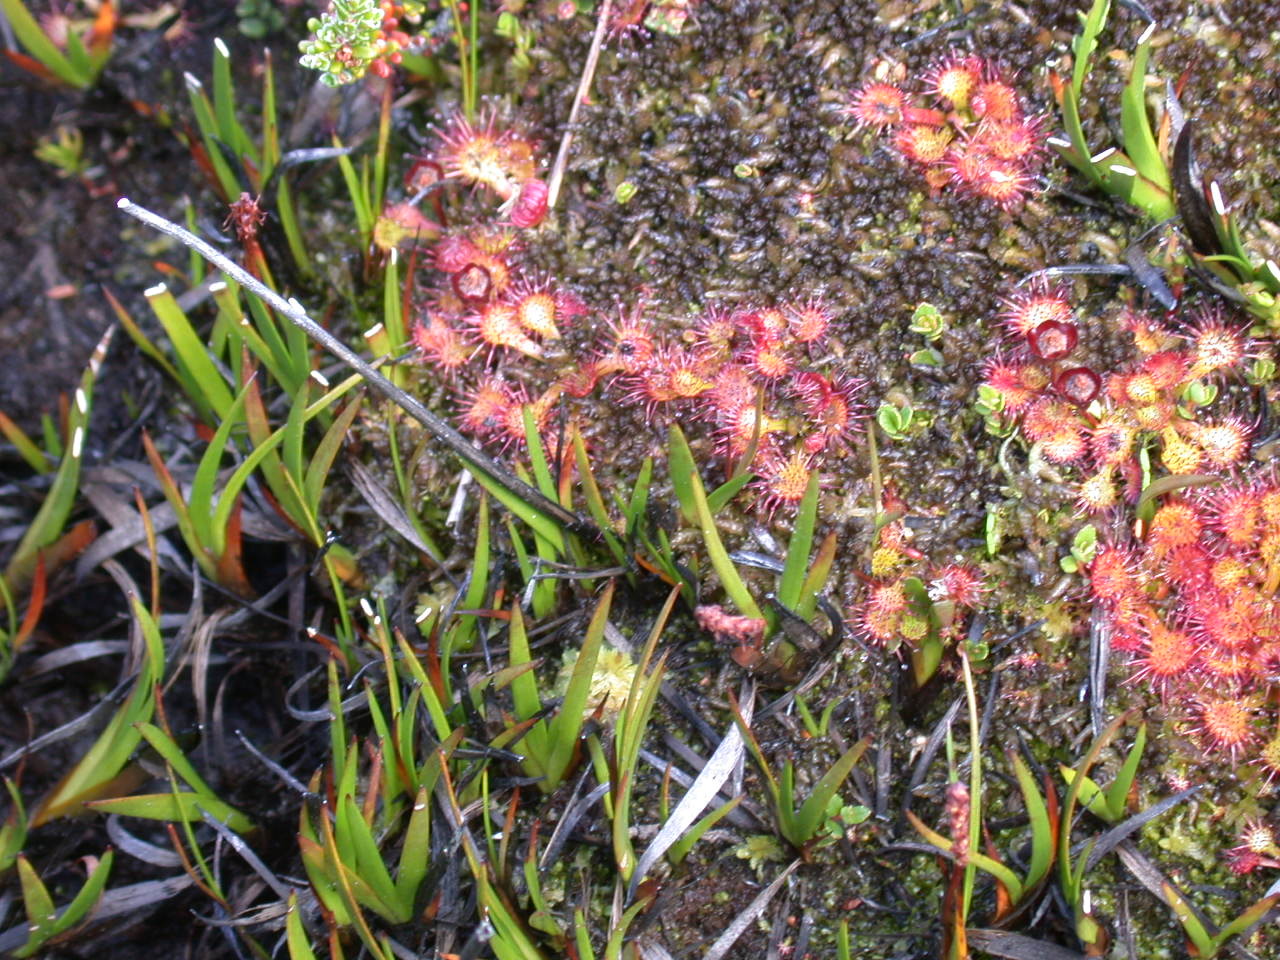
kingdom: Plantae
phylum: Tracheophyta
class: Magnoliopsida
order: Caryophyllales
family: Droseraceae
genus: Drosera
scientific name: Drosera uniflora
